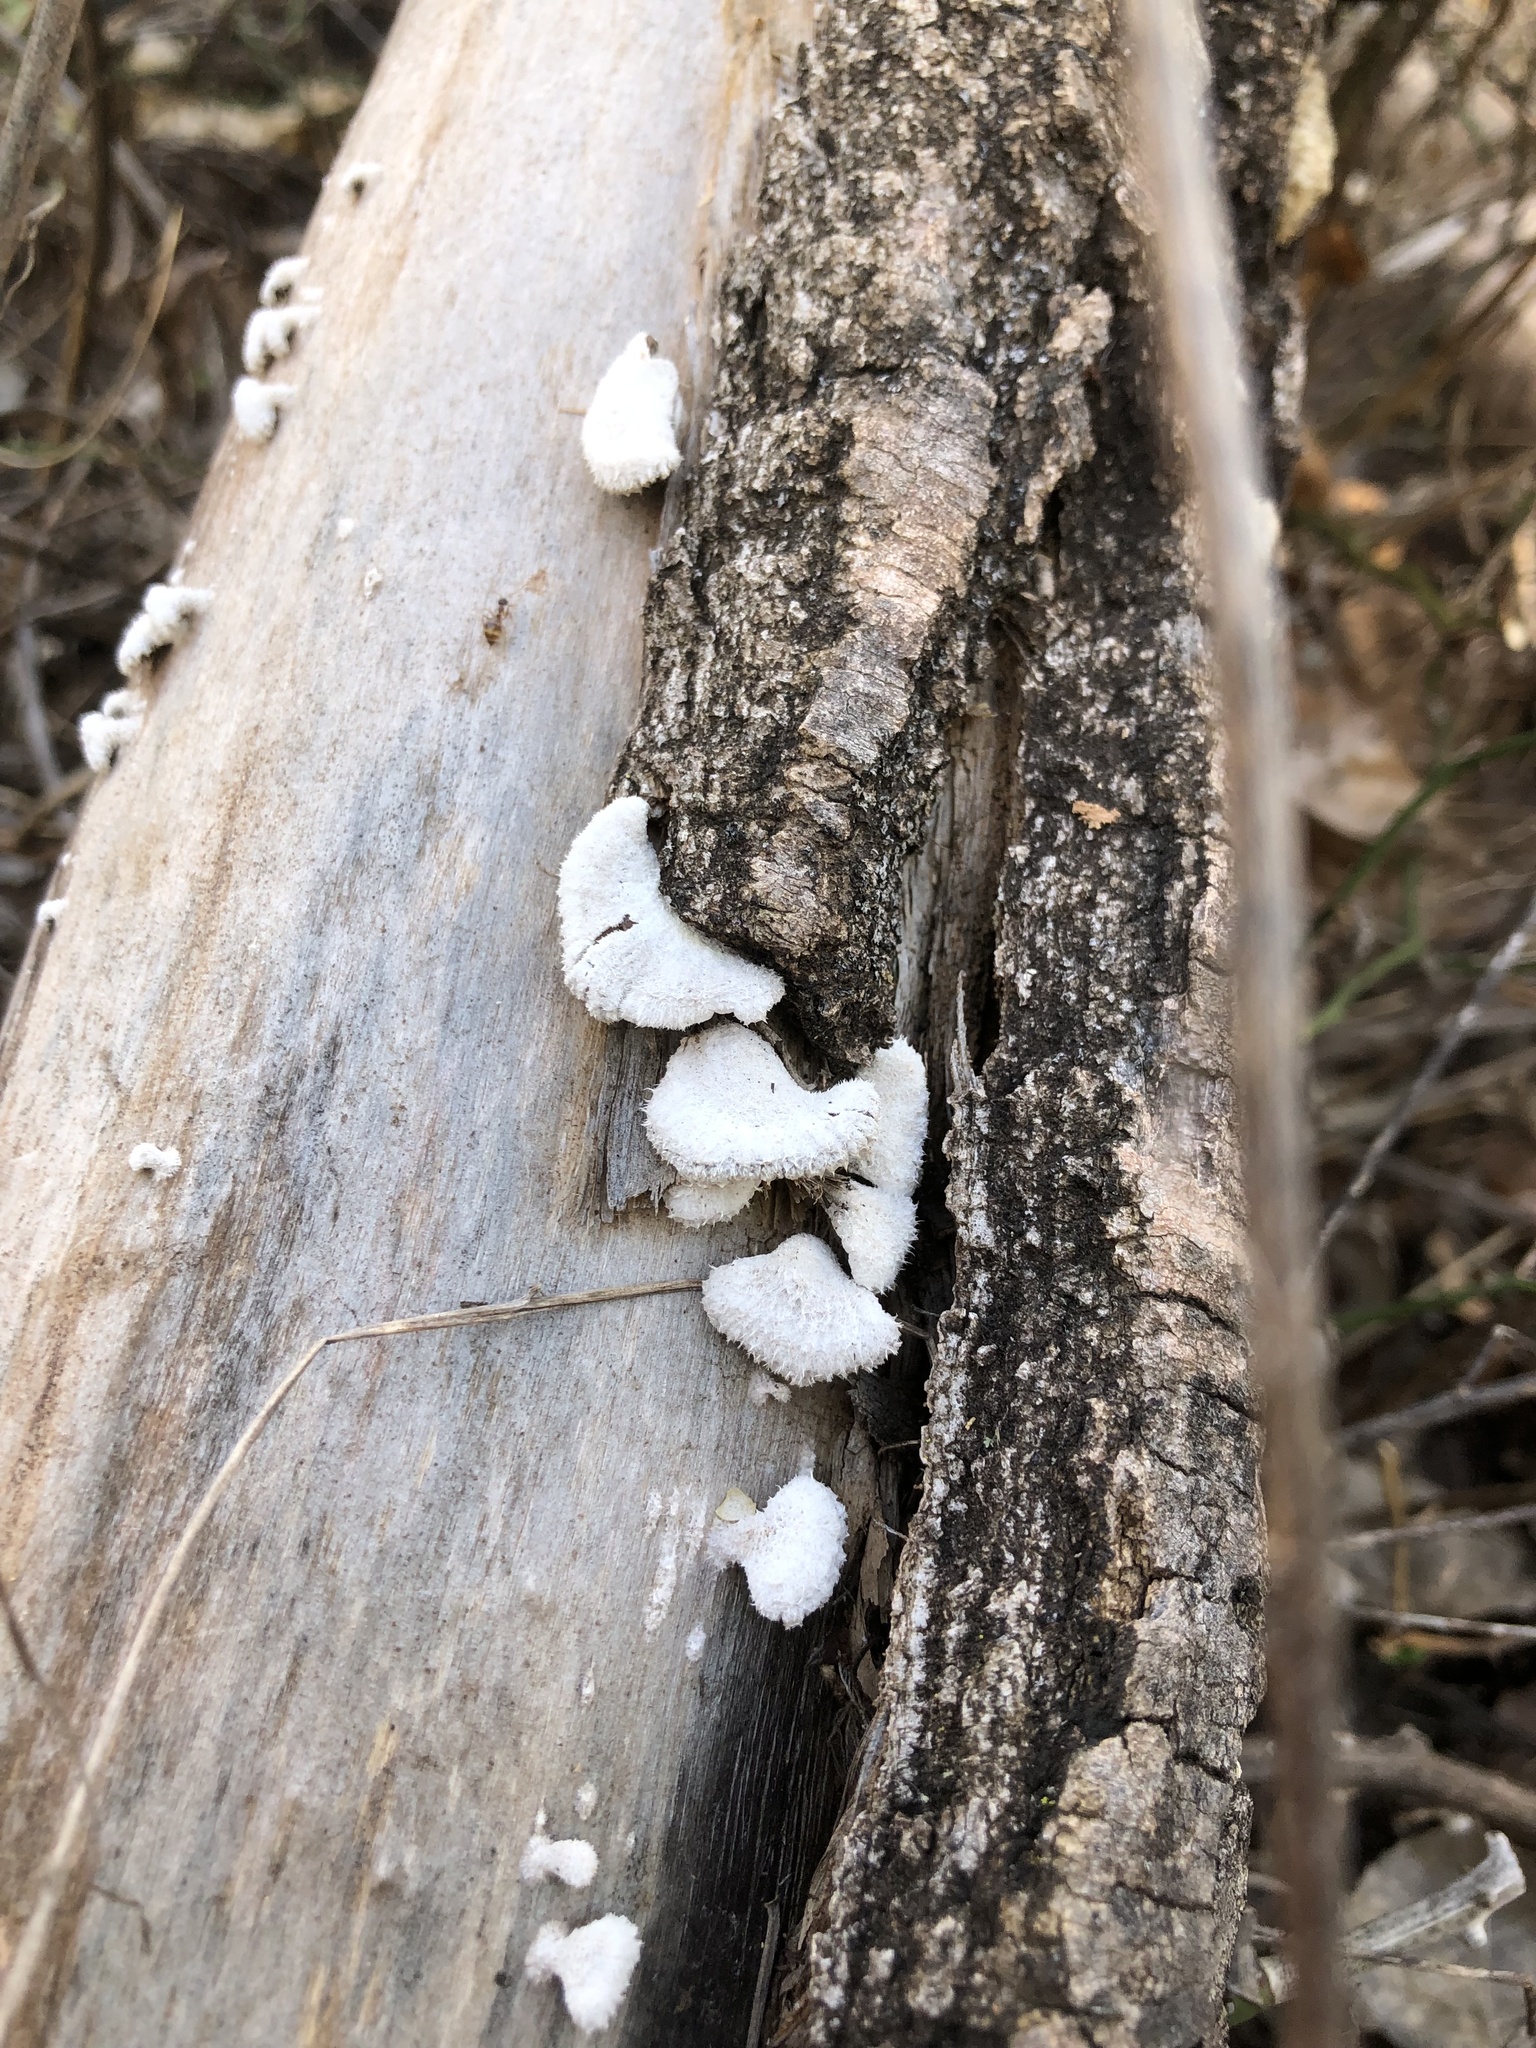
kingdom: Fungi
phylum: Basidiomycota
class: Agaricomycetes
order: Agaricales
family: Schizophyllaceae
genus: Schizophyllum
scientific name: Schizophyllum commune
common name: Common porecrust
